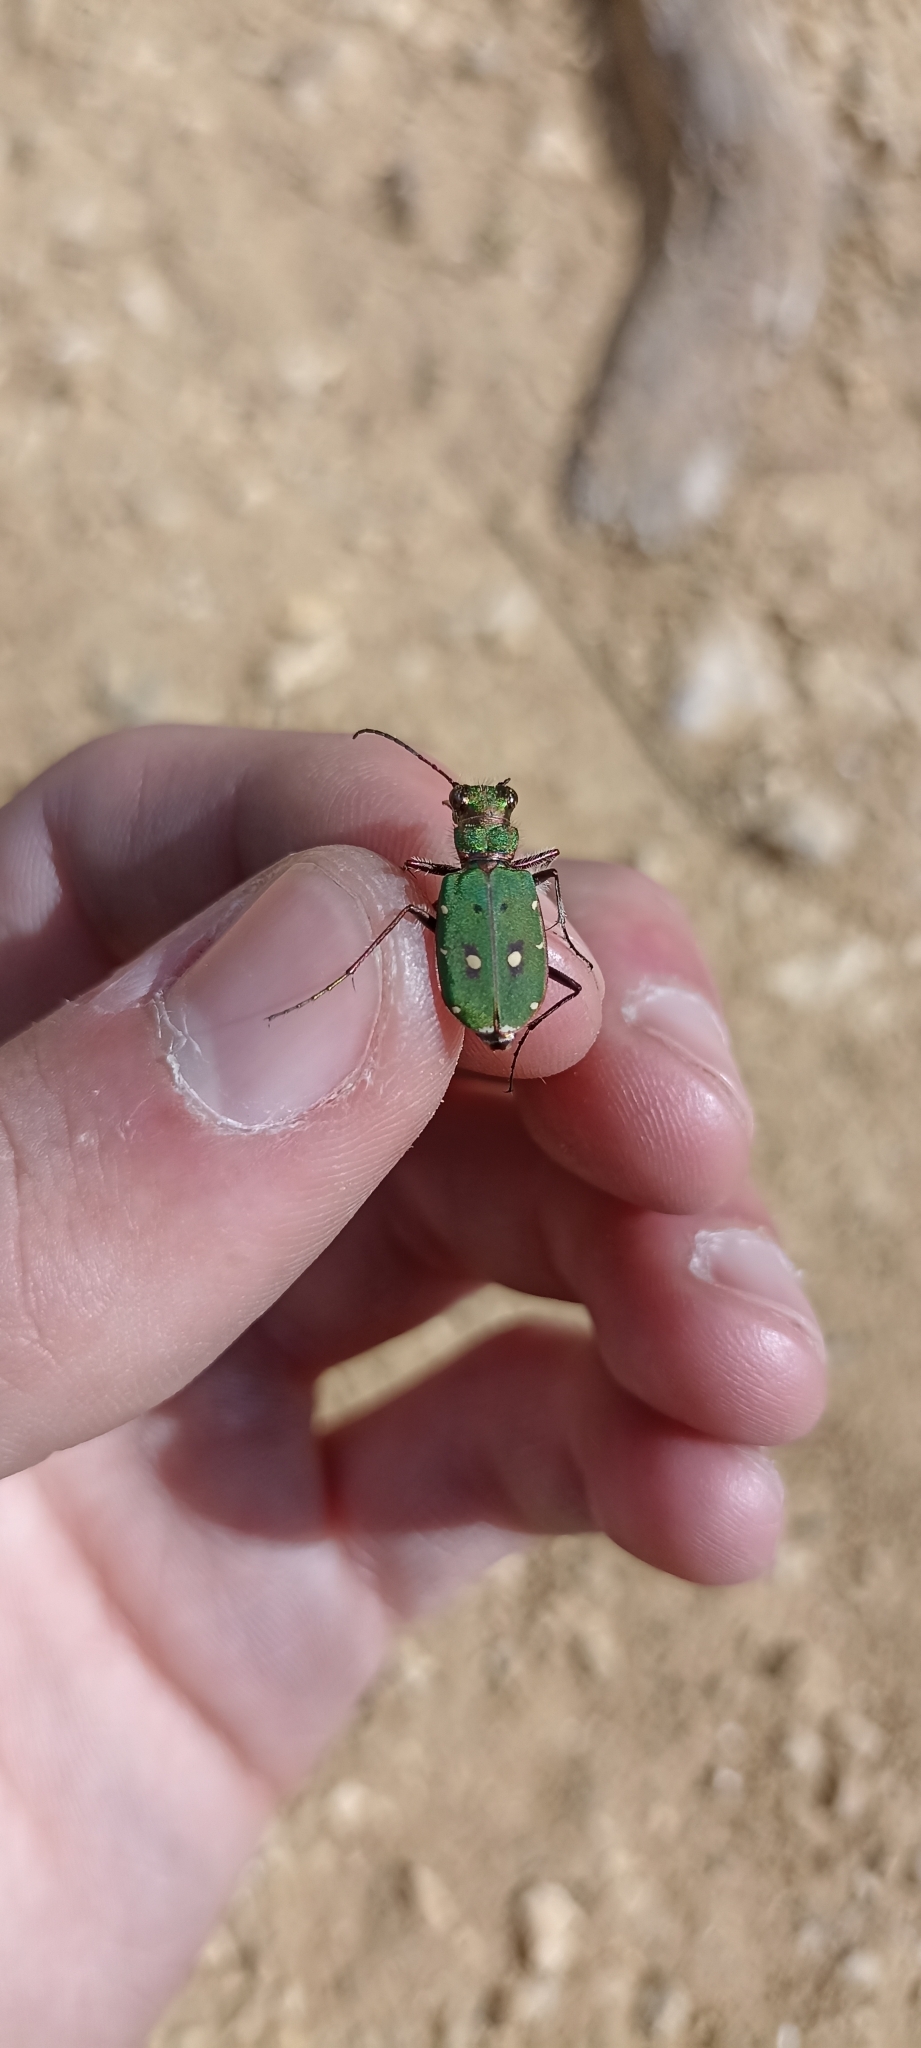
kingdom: Animalia
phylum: Arthropoda
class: Insecta
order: Coleoptera
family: Carabidae
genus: Cicindela
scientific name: Cicindela campestris
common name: Common tiger beetle
